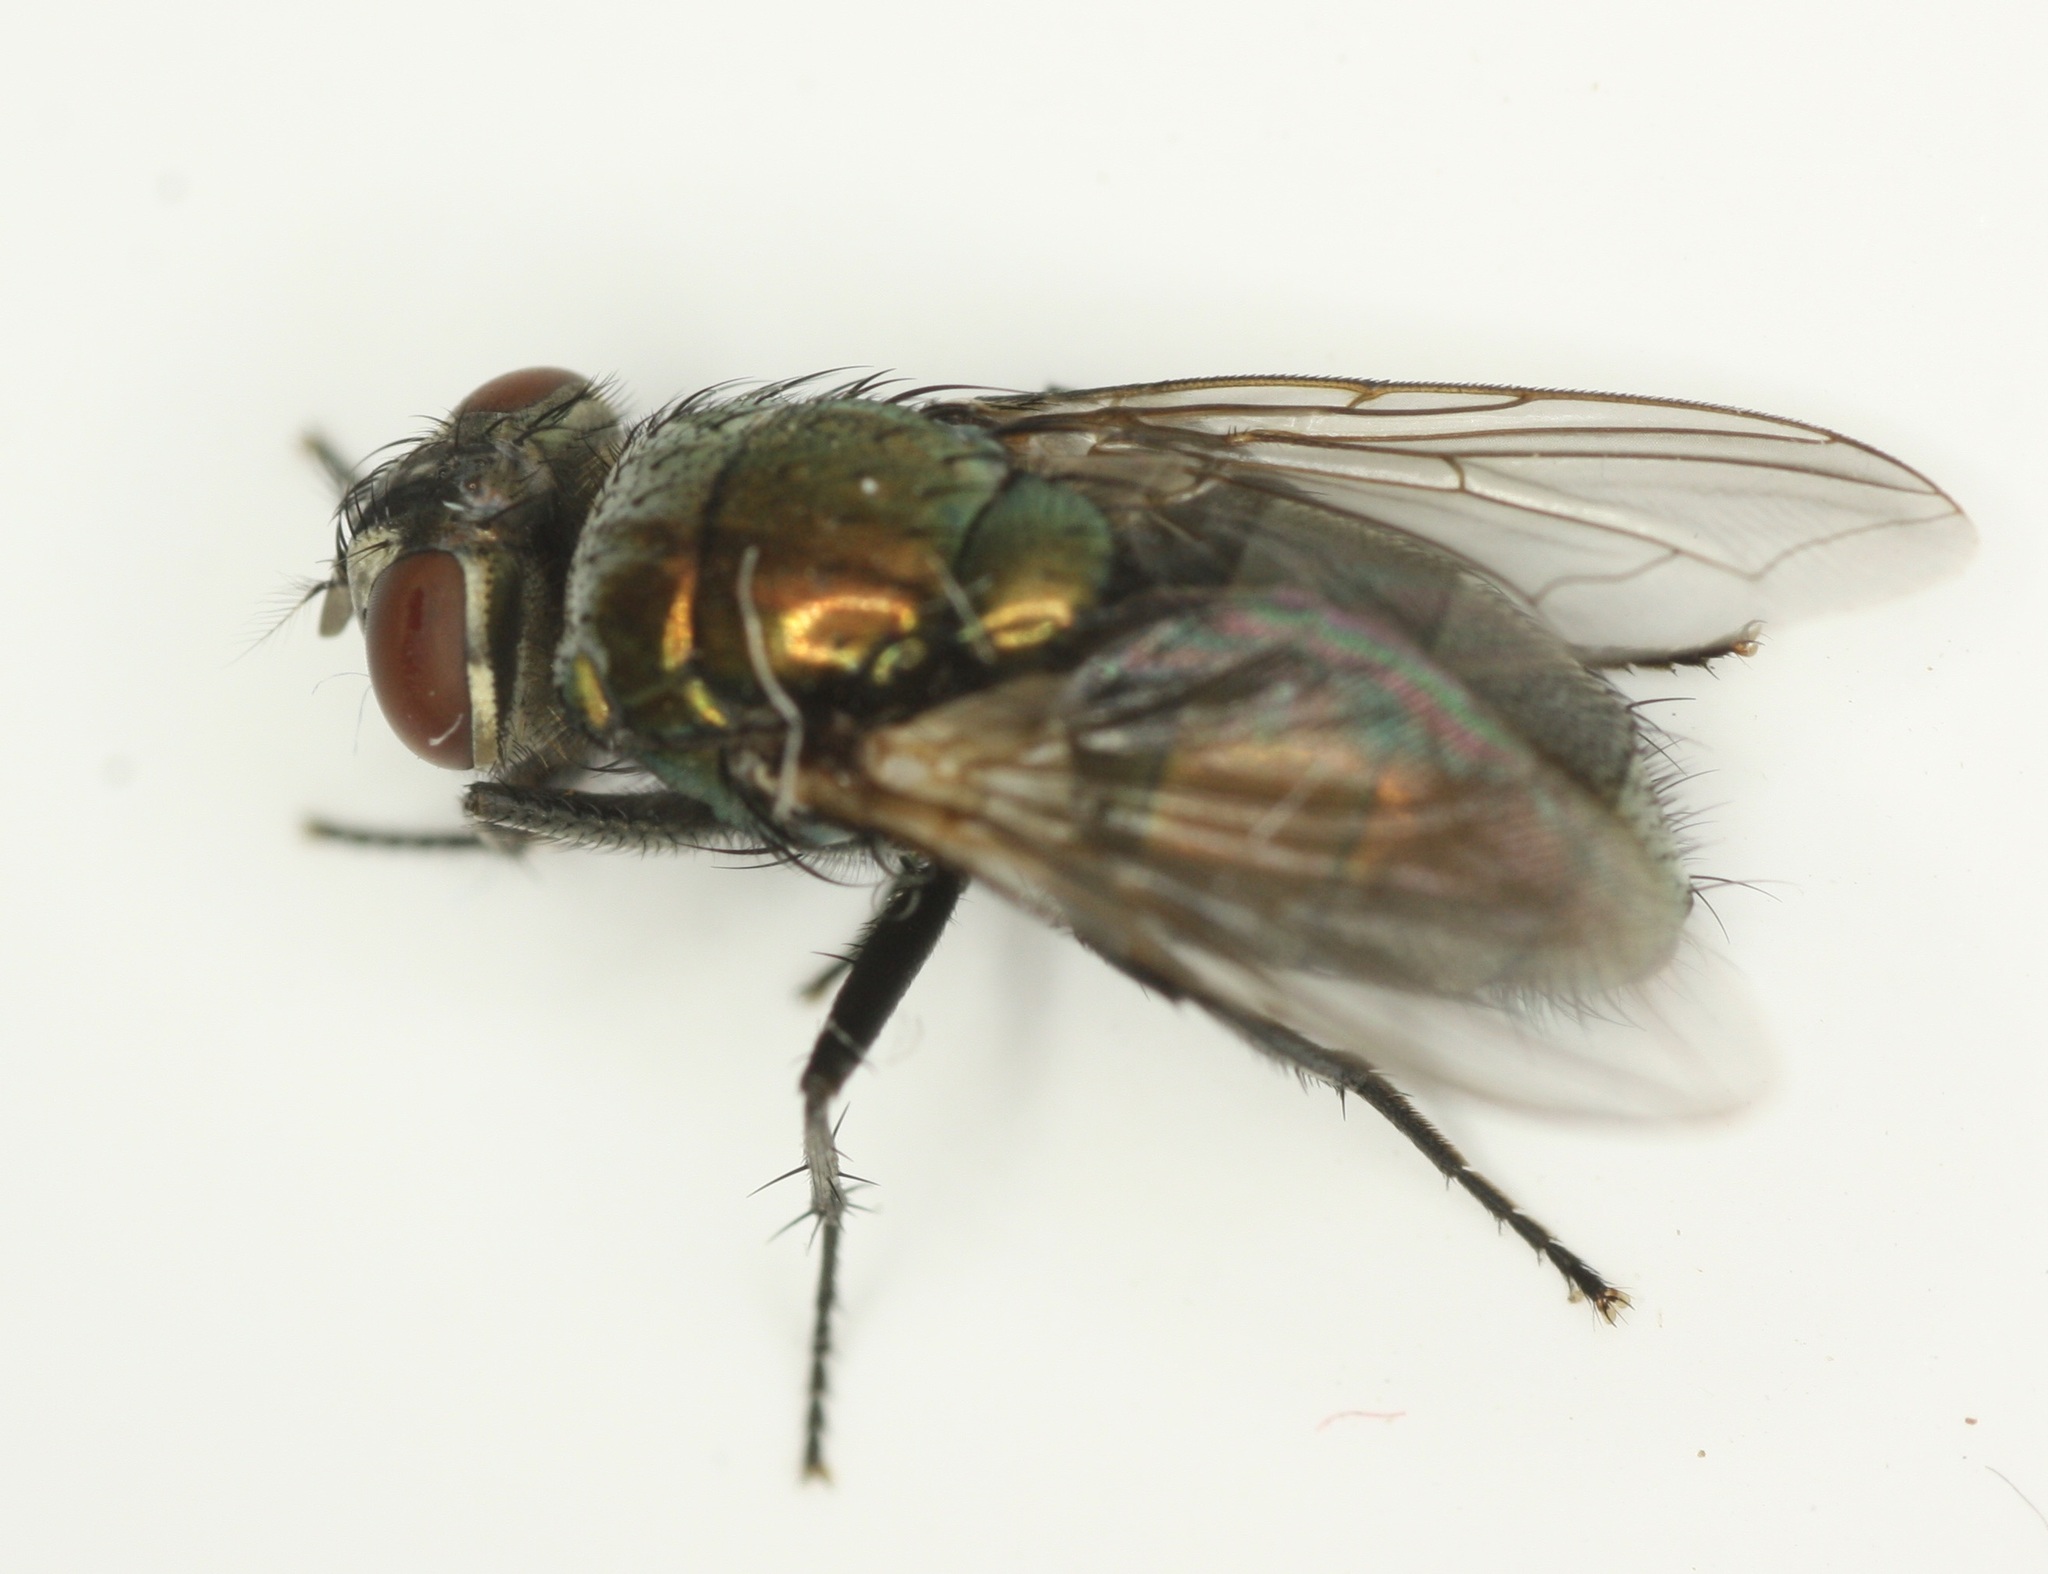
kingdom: Animalia
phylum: Arthropoda
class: Insecta
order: Diptera
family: Calliphoridae
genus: Lucilia
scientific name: Lucilia cuprina
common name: Sheep blow fly
